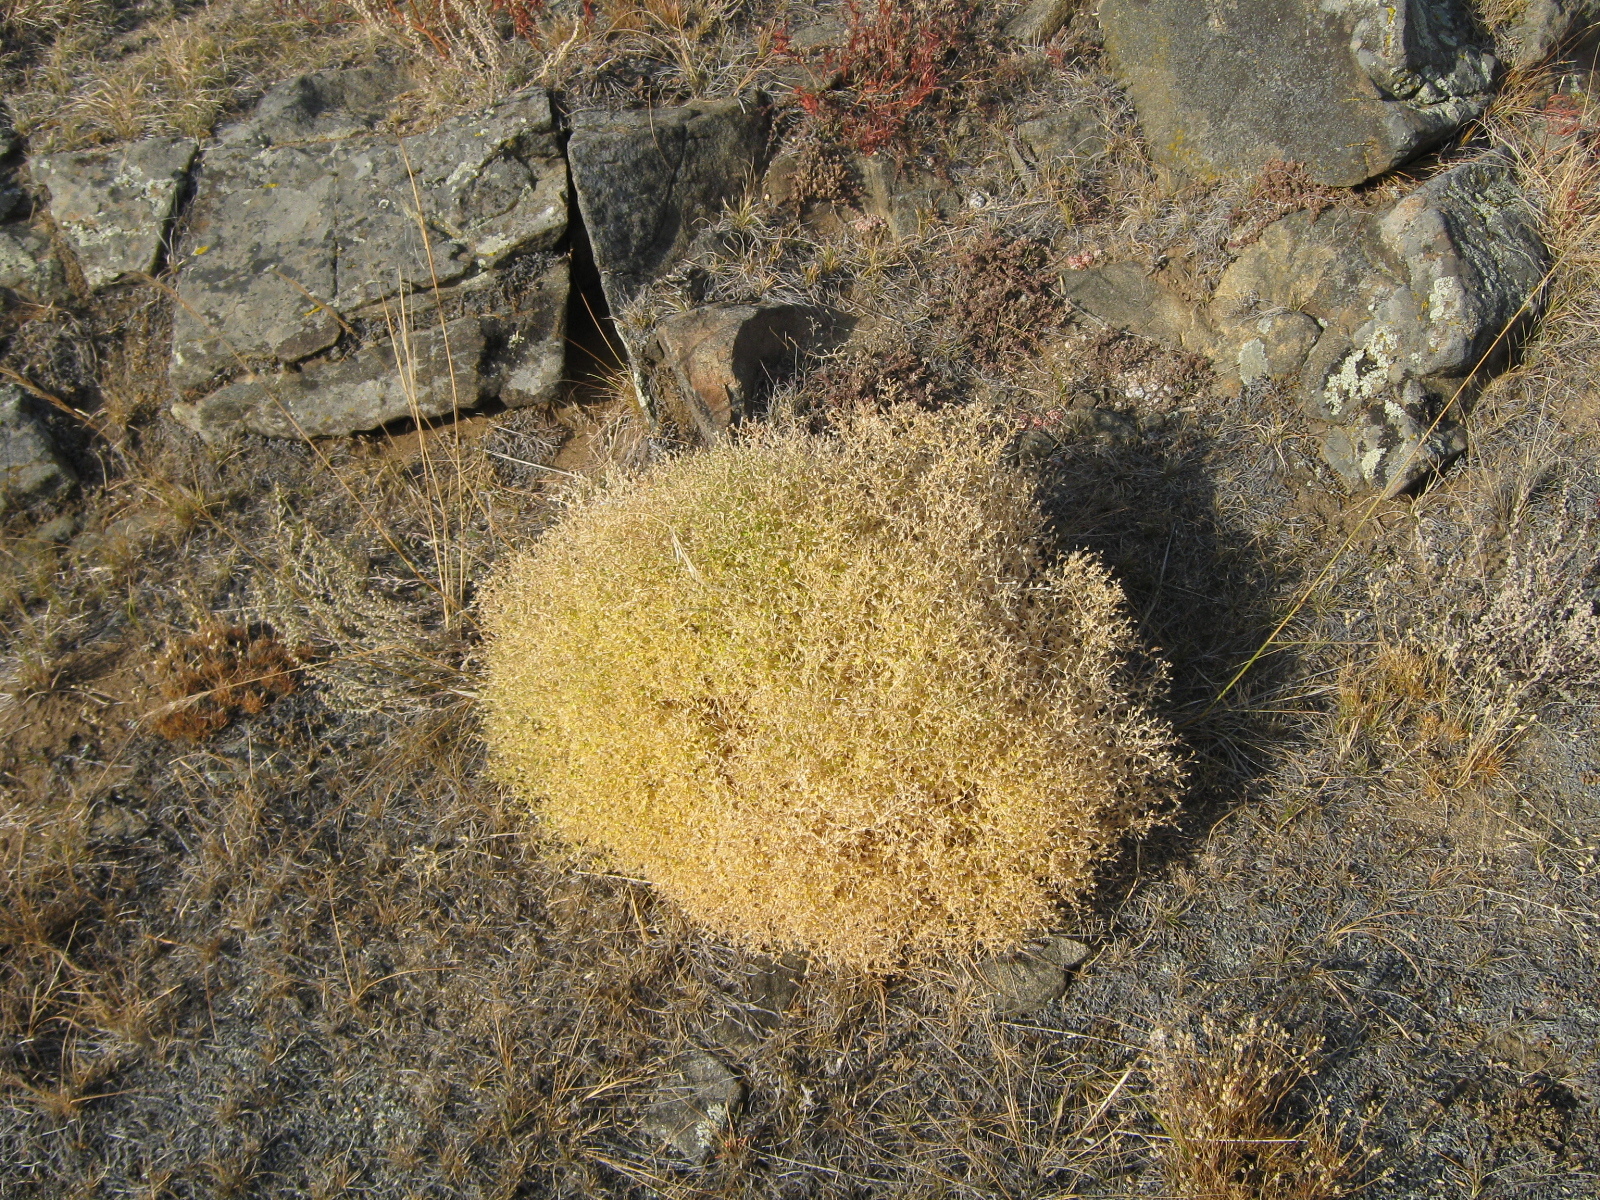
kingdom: Plantae
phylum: Tracheophyta
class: Magnoliopsida
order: Caryophyllales
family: Caryophyllaceae
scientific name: Caryophyllaceae
